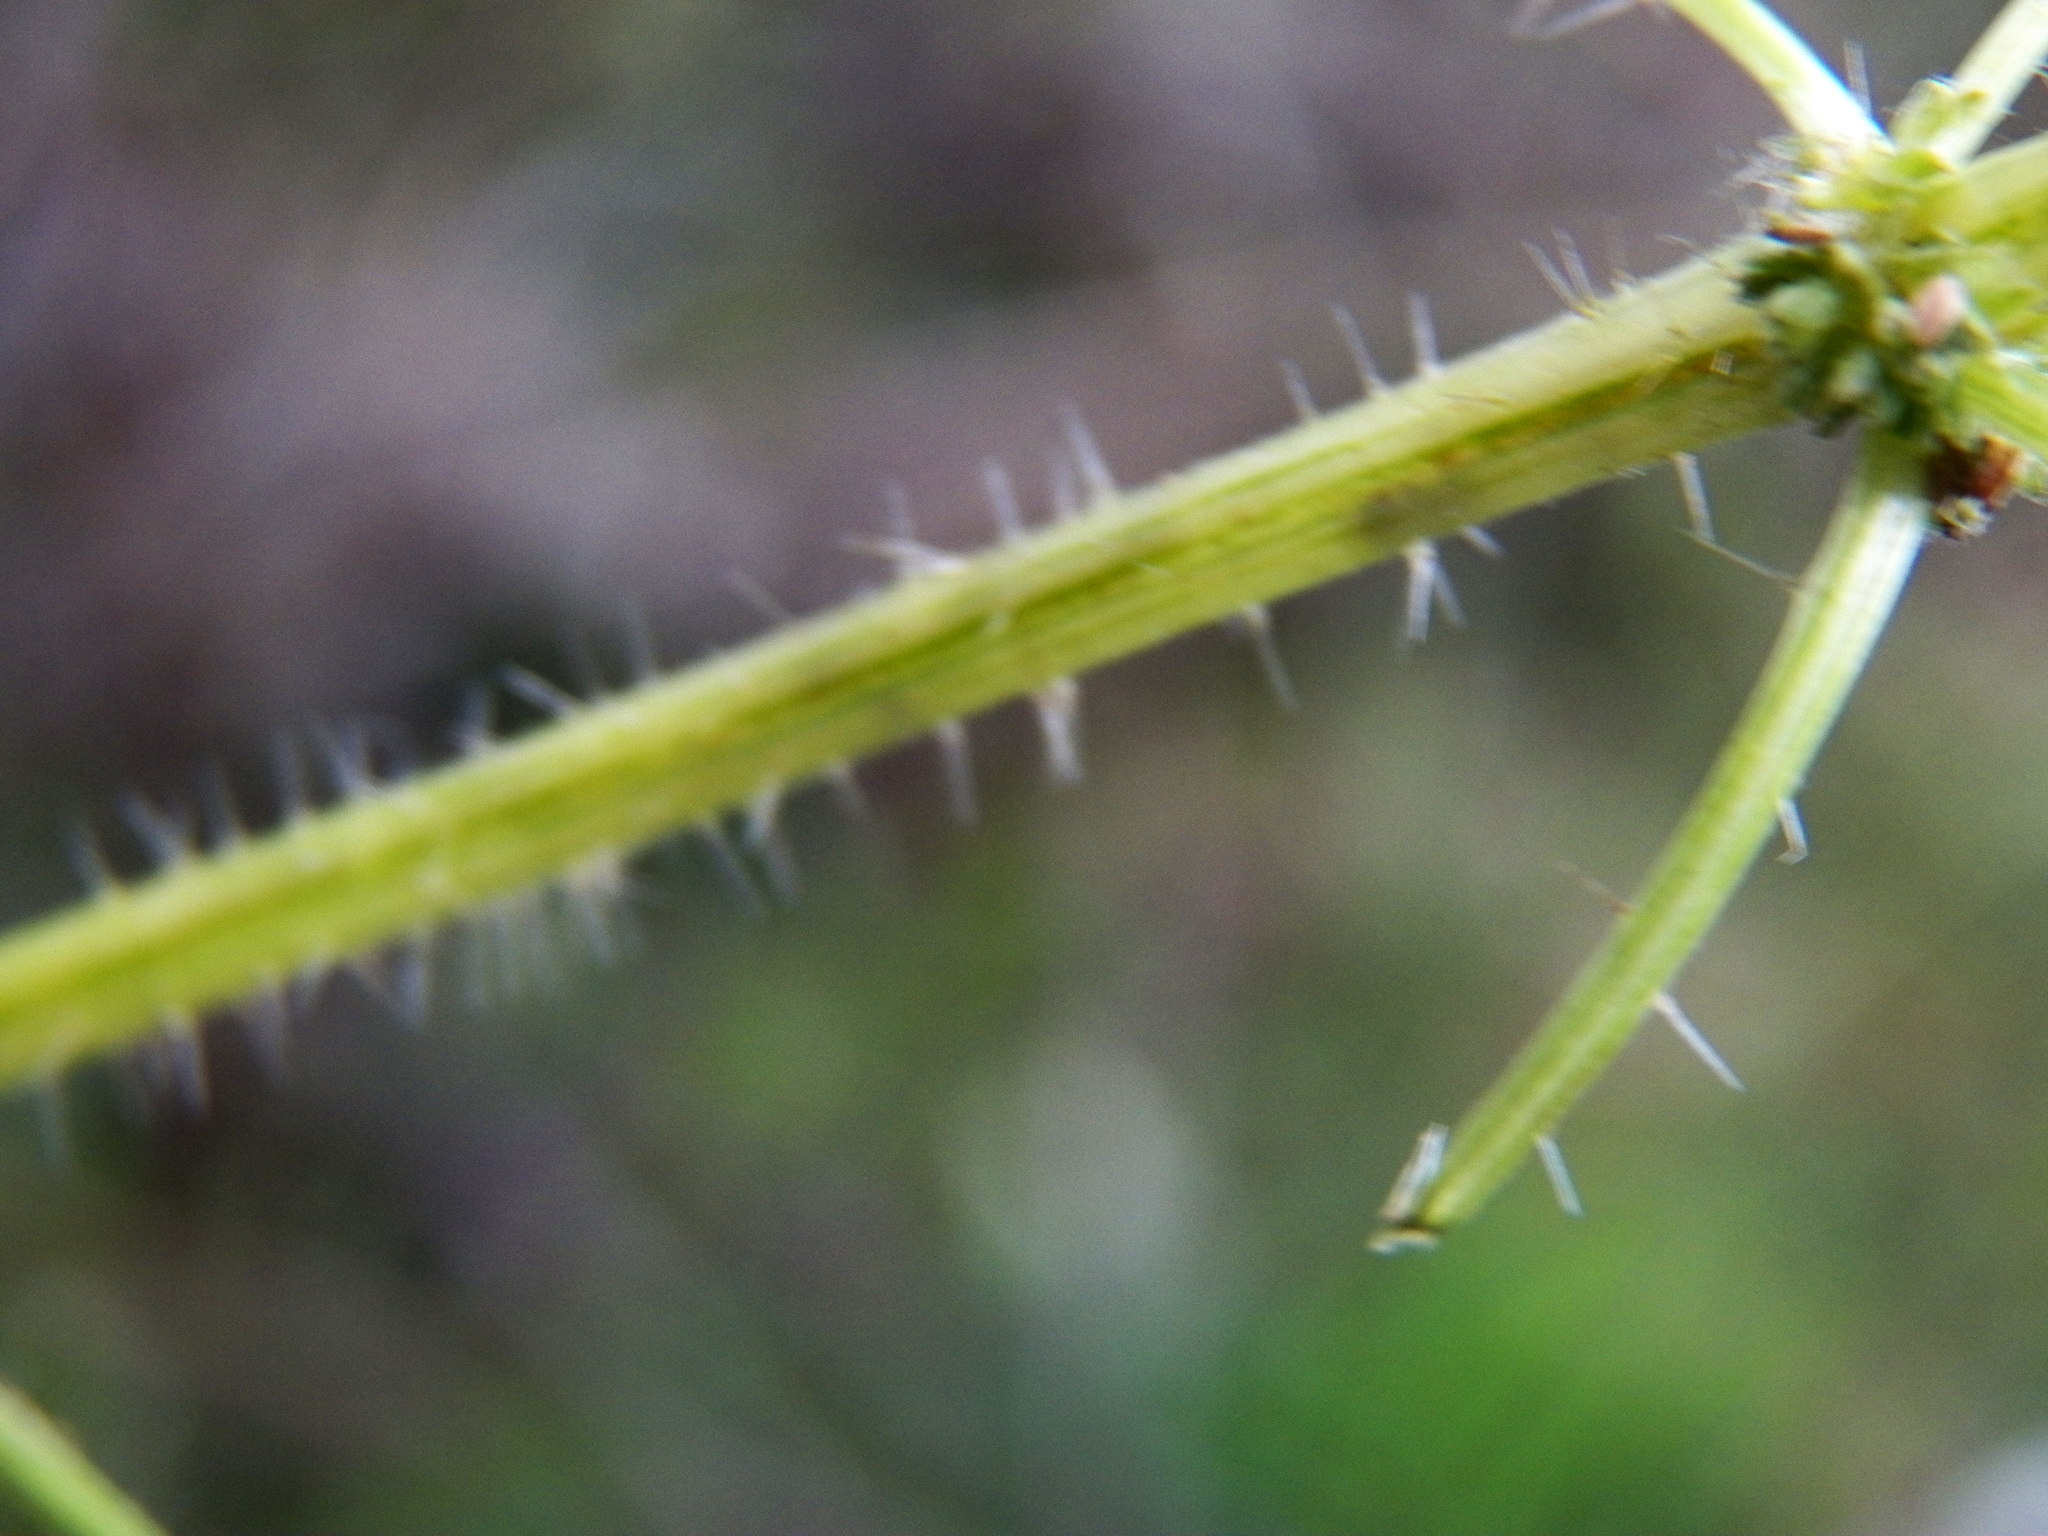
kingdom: Plantae
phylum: Tracheophyta
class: Magnoliopsida
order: Rosales
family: Urticaceae
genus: Urtica
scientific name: Urtica chamaedryoides
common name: Heart-leaf nettle
